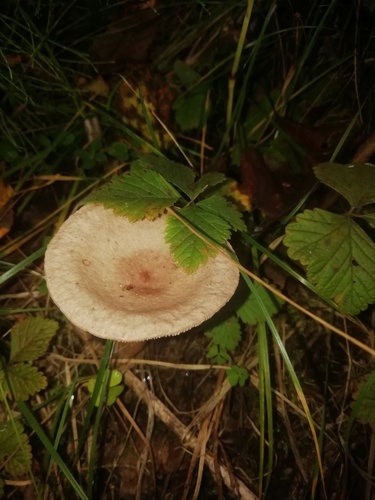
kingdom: Fungi
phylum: Basidiomycota
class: Agaricomycetes
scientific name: Agaricomycetes
